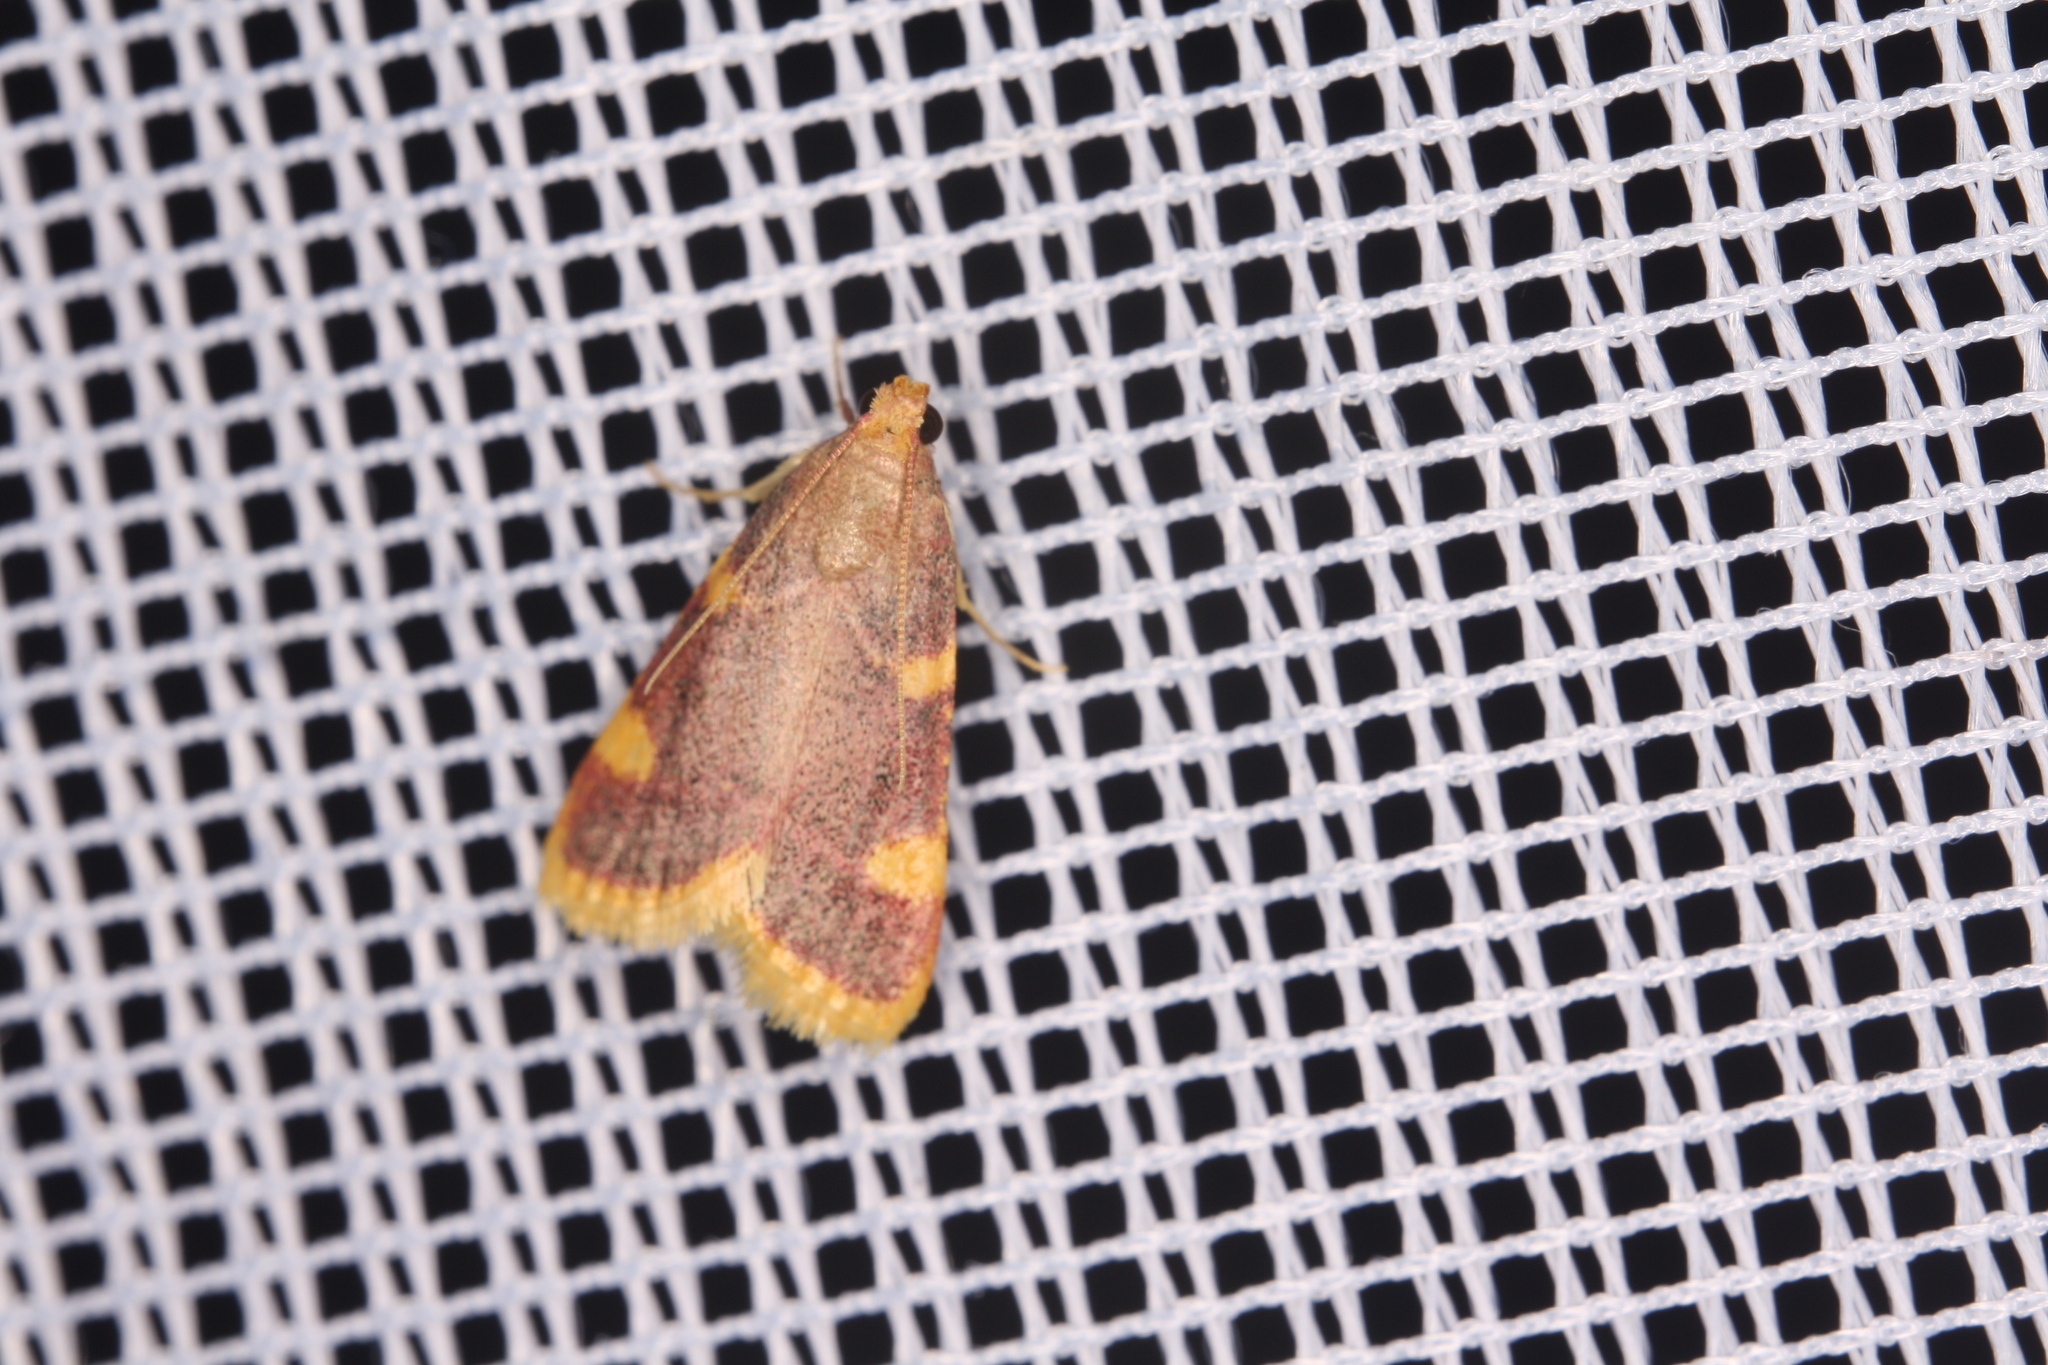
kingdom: Animalia
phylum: Arthropoda
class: Insecta
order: Lepidoptera
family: Pyralidae
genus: Hypsopygia
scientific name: Hypsopygia costalis
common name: Gold triangle
